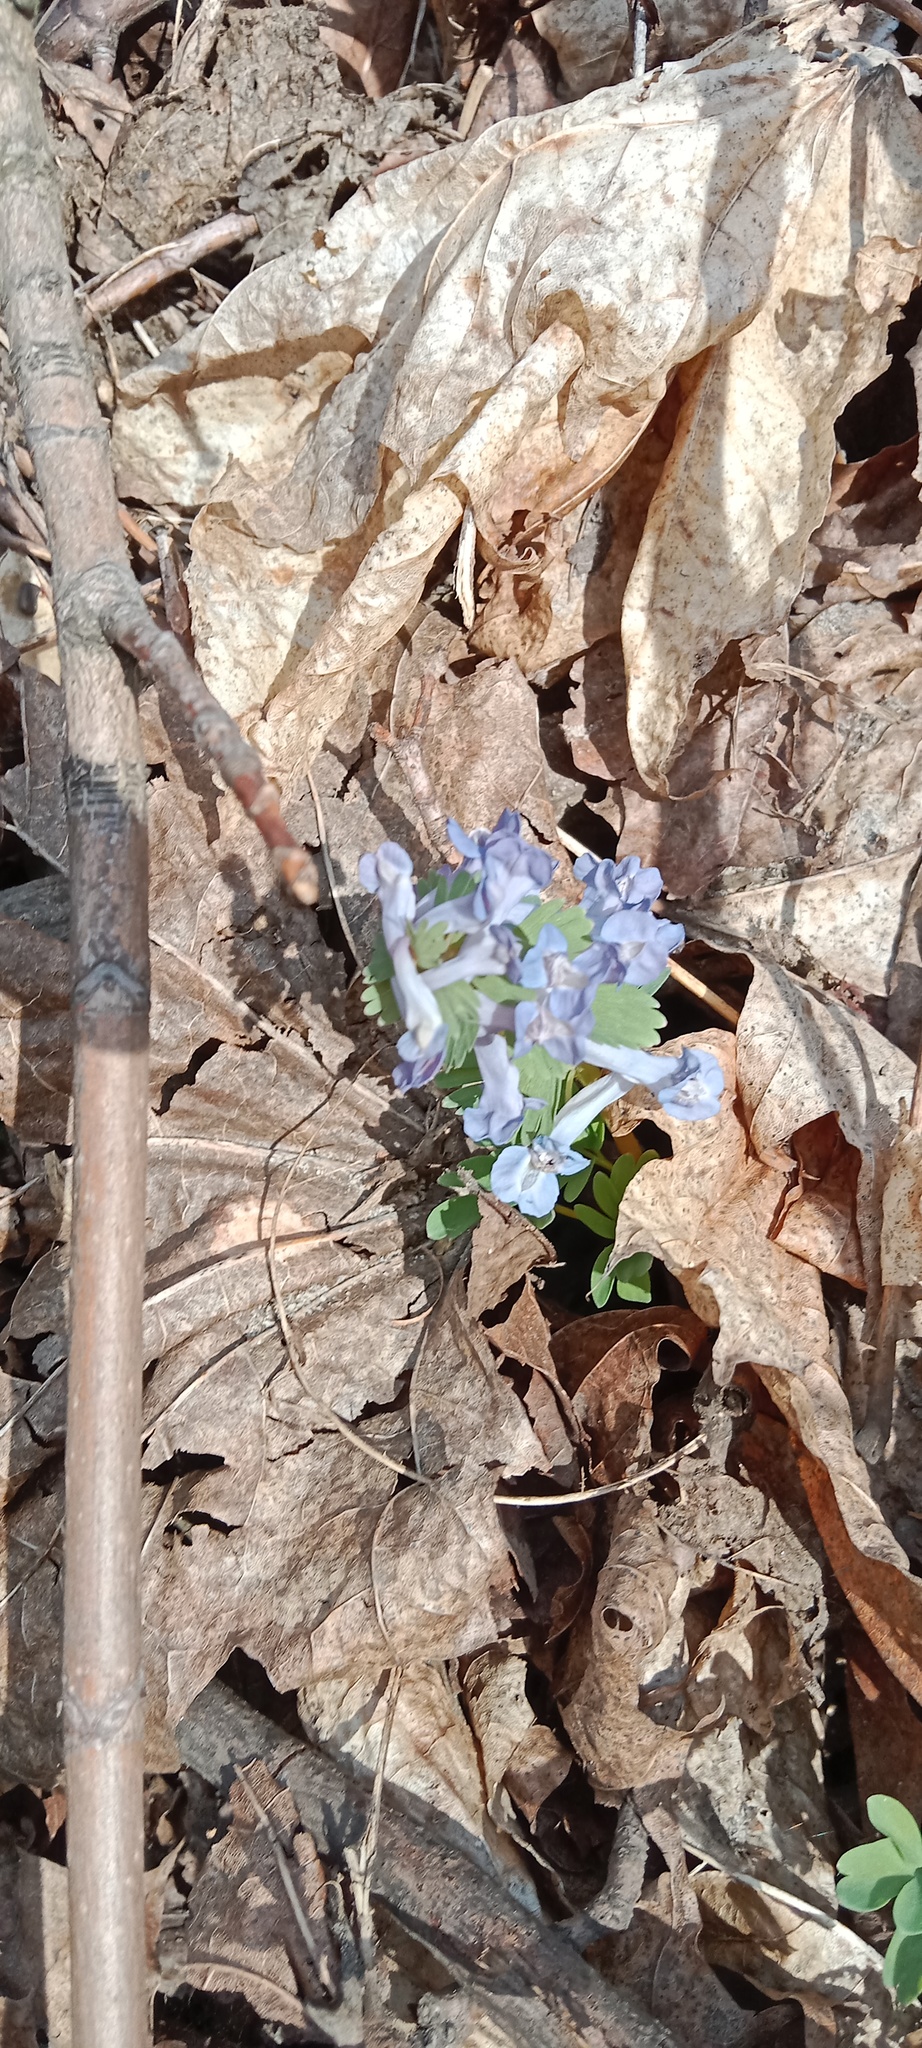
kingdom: Plantae
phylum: Tracheophyta
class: Magnoliopsida
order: Ranunculales
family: Papaveraceae
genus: Corydalis
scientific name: Corydalis solida
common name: Bird-in-a-bush
